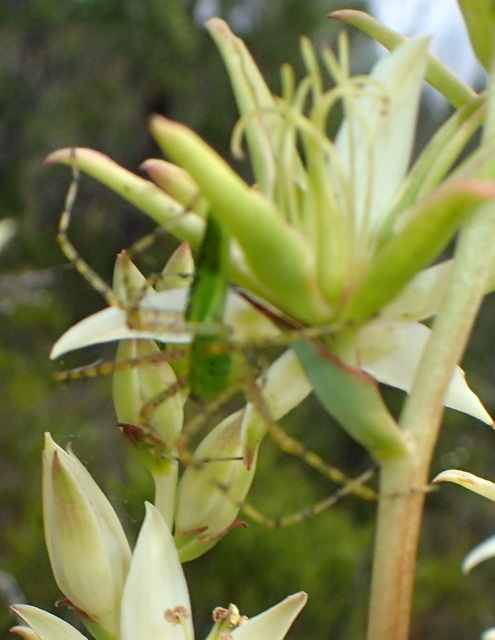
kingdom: Animalia
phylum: Arthropoda
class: Arachnida
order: Araneae
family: Oxyopidae
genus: Peucetia
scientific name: Peucetia viridans
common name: Lynx spiders
